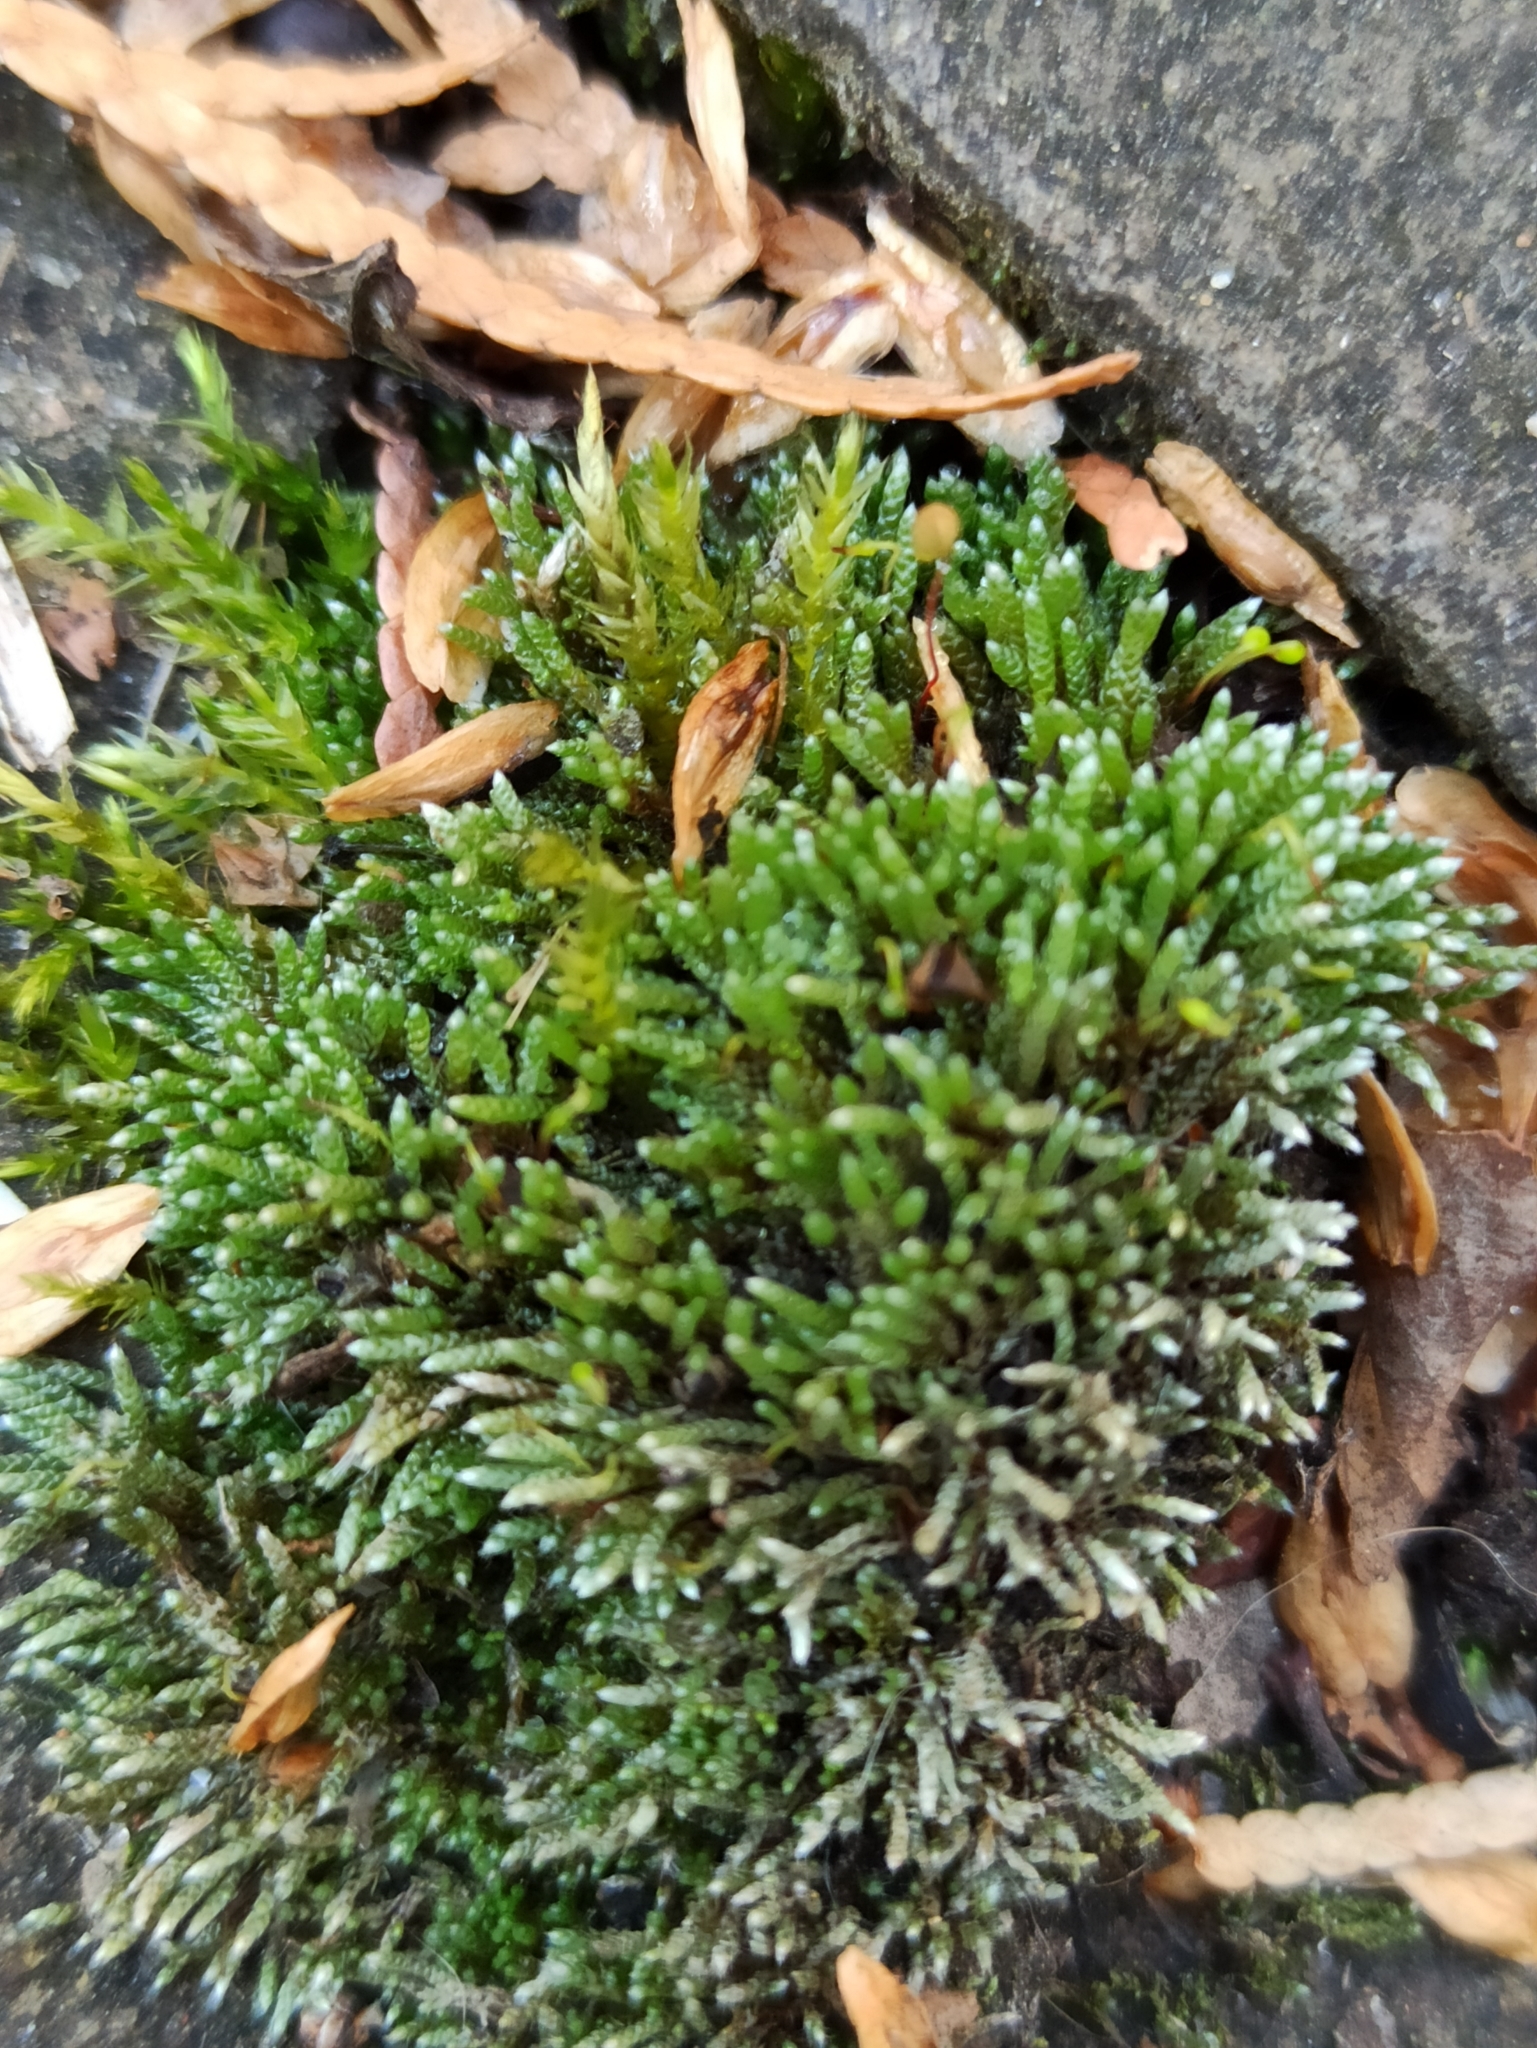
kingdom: Plantae
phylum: Bryophyta
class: Bryopsida
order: Bryales
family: Bryaceae
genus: Bryum
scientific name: Bryum argenteum
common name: Silver-moss
